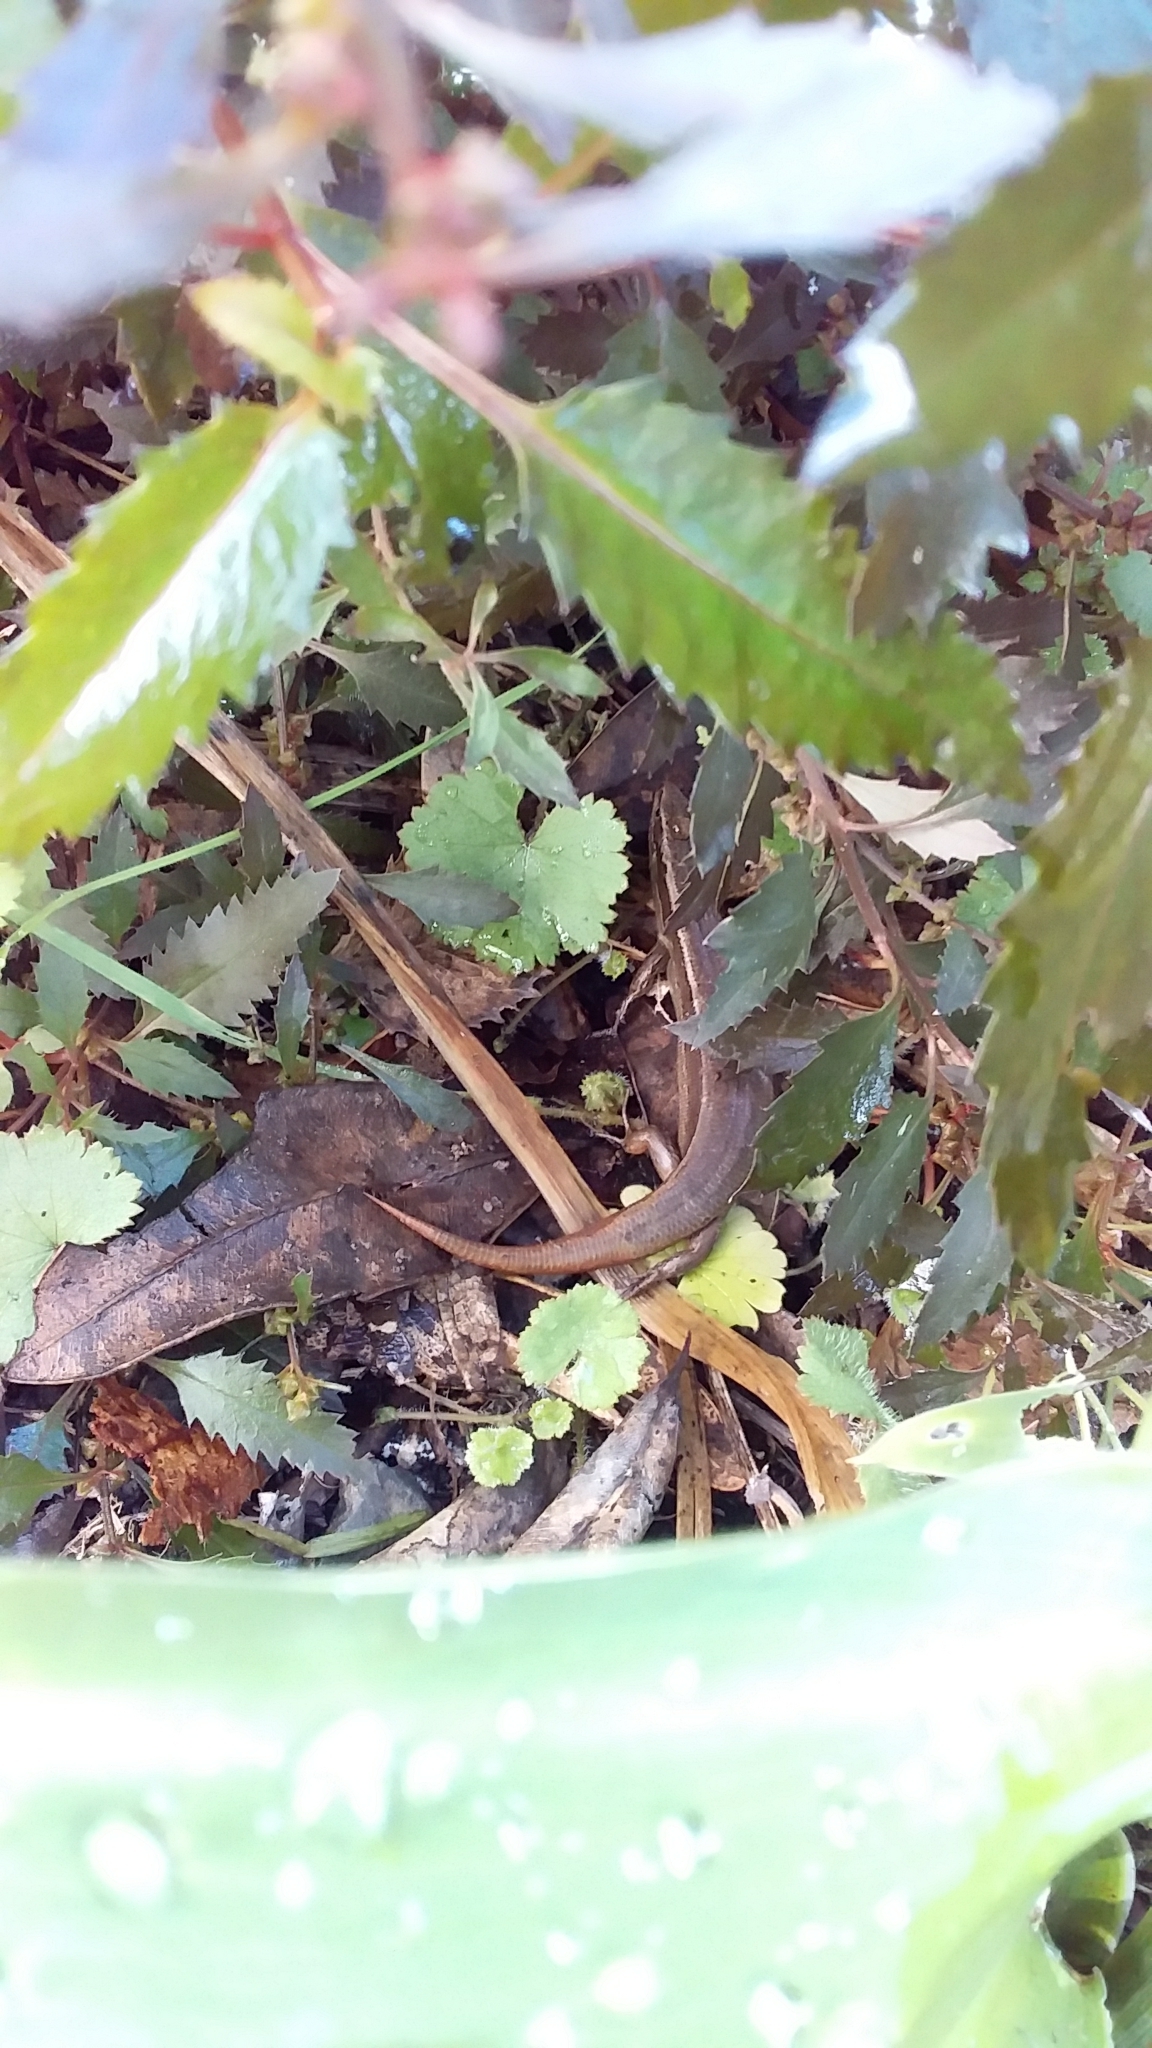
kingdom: Animalia
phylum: Chordata
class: Squamata
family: Scincidae
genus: Oligosoma
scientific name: Oligosoma zelandicum
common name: Brown skink
